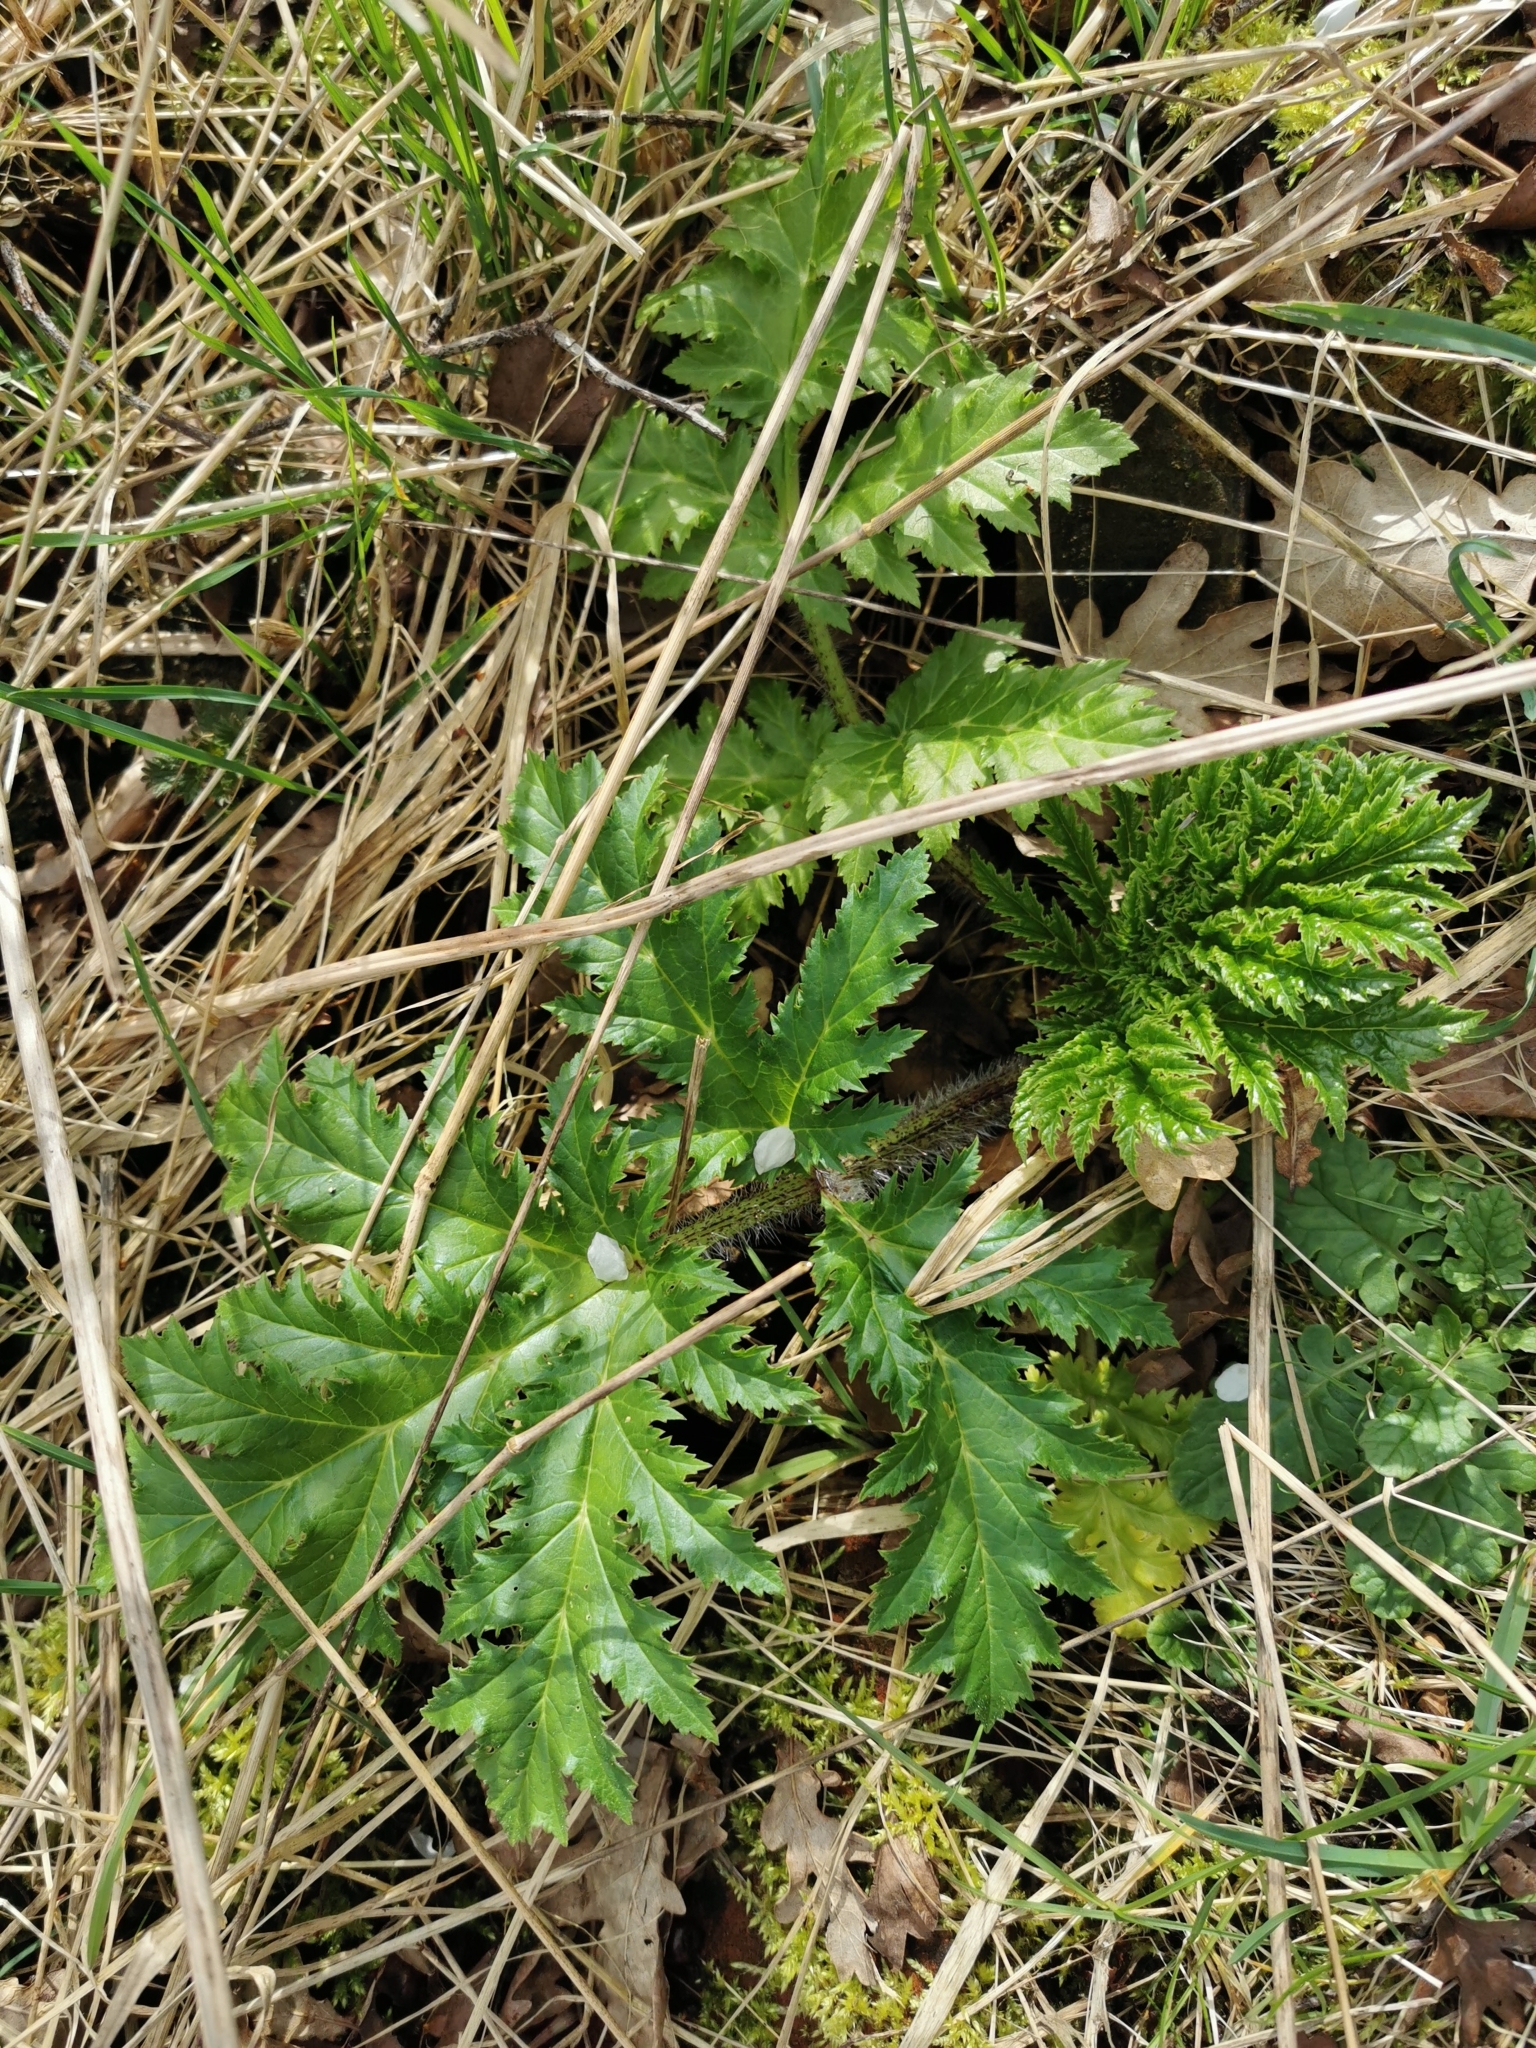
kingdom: Plantae
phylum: Tracheophyta
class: Magnoliopsida
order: Apiales
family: Apiaceae
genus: Heracleum
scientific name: Heracleum mantegazzianum
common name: Giant hogweed
